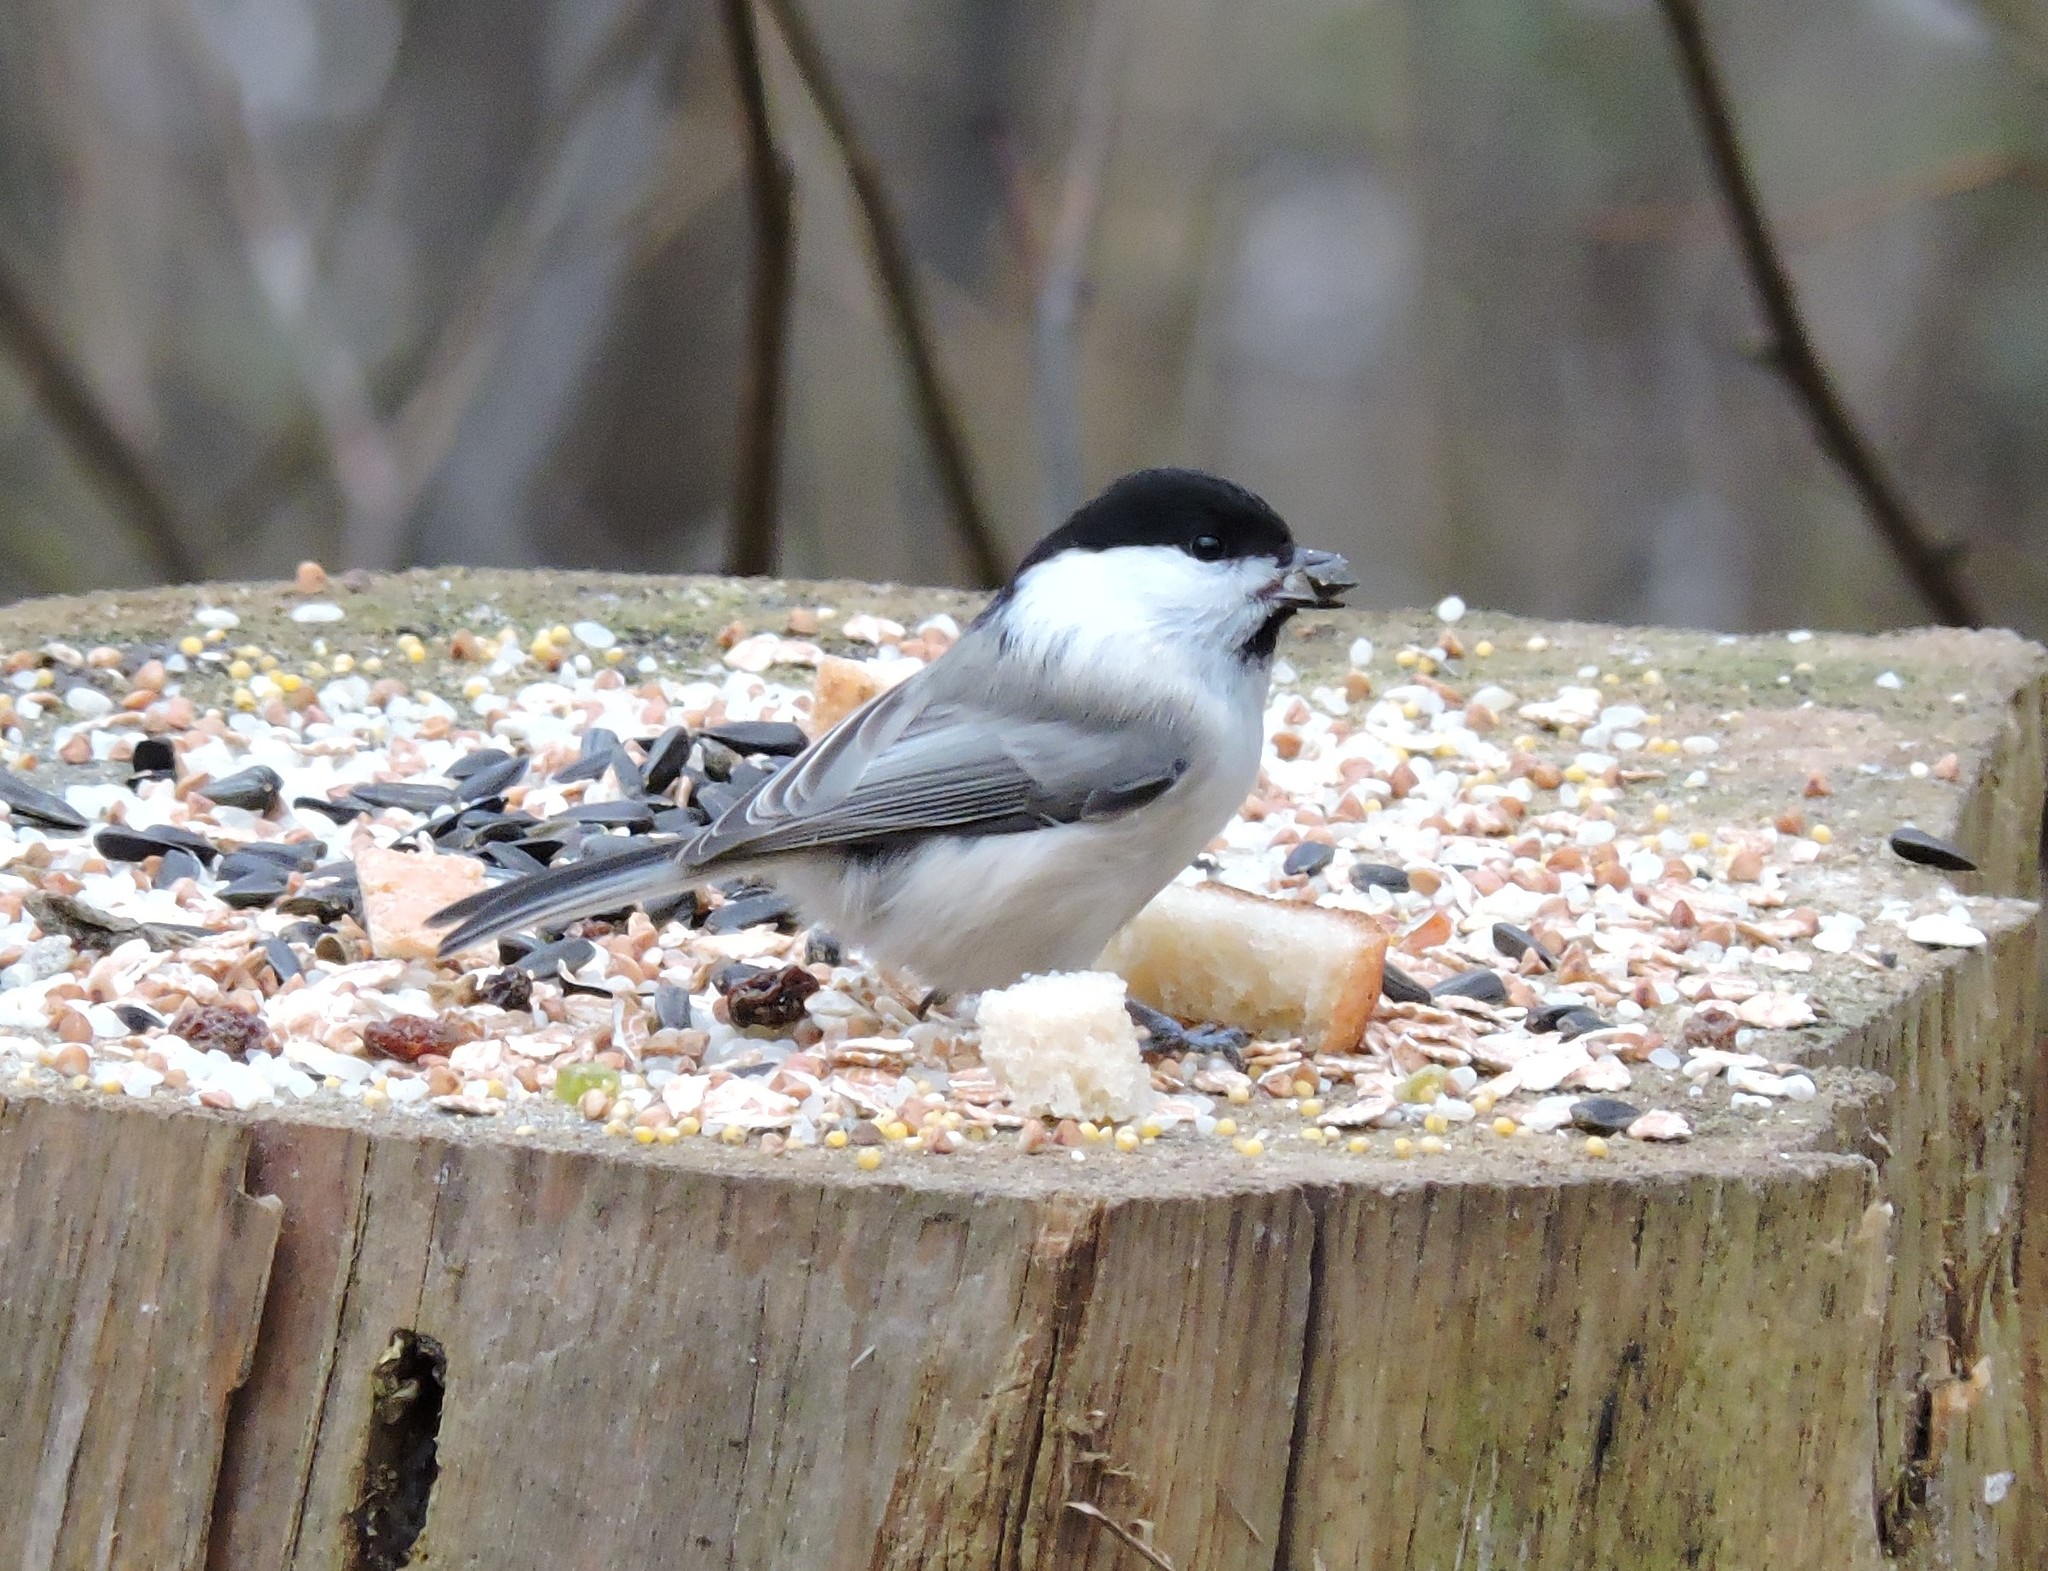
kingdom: Animalia
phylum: Chordata
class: Aves
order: Passeriformes
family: Paridae
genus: Poecile
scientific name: Poecile montanus
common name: Willow tit
